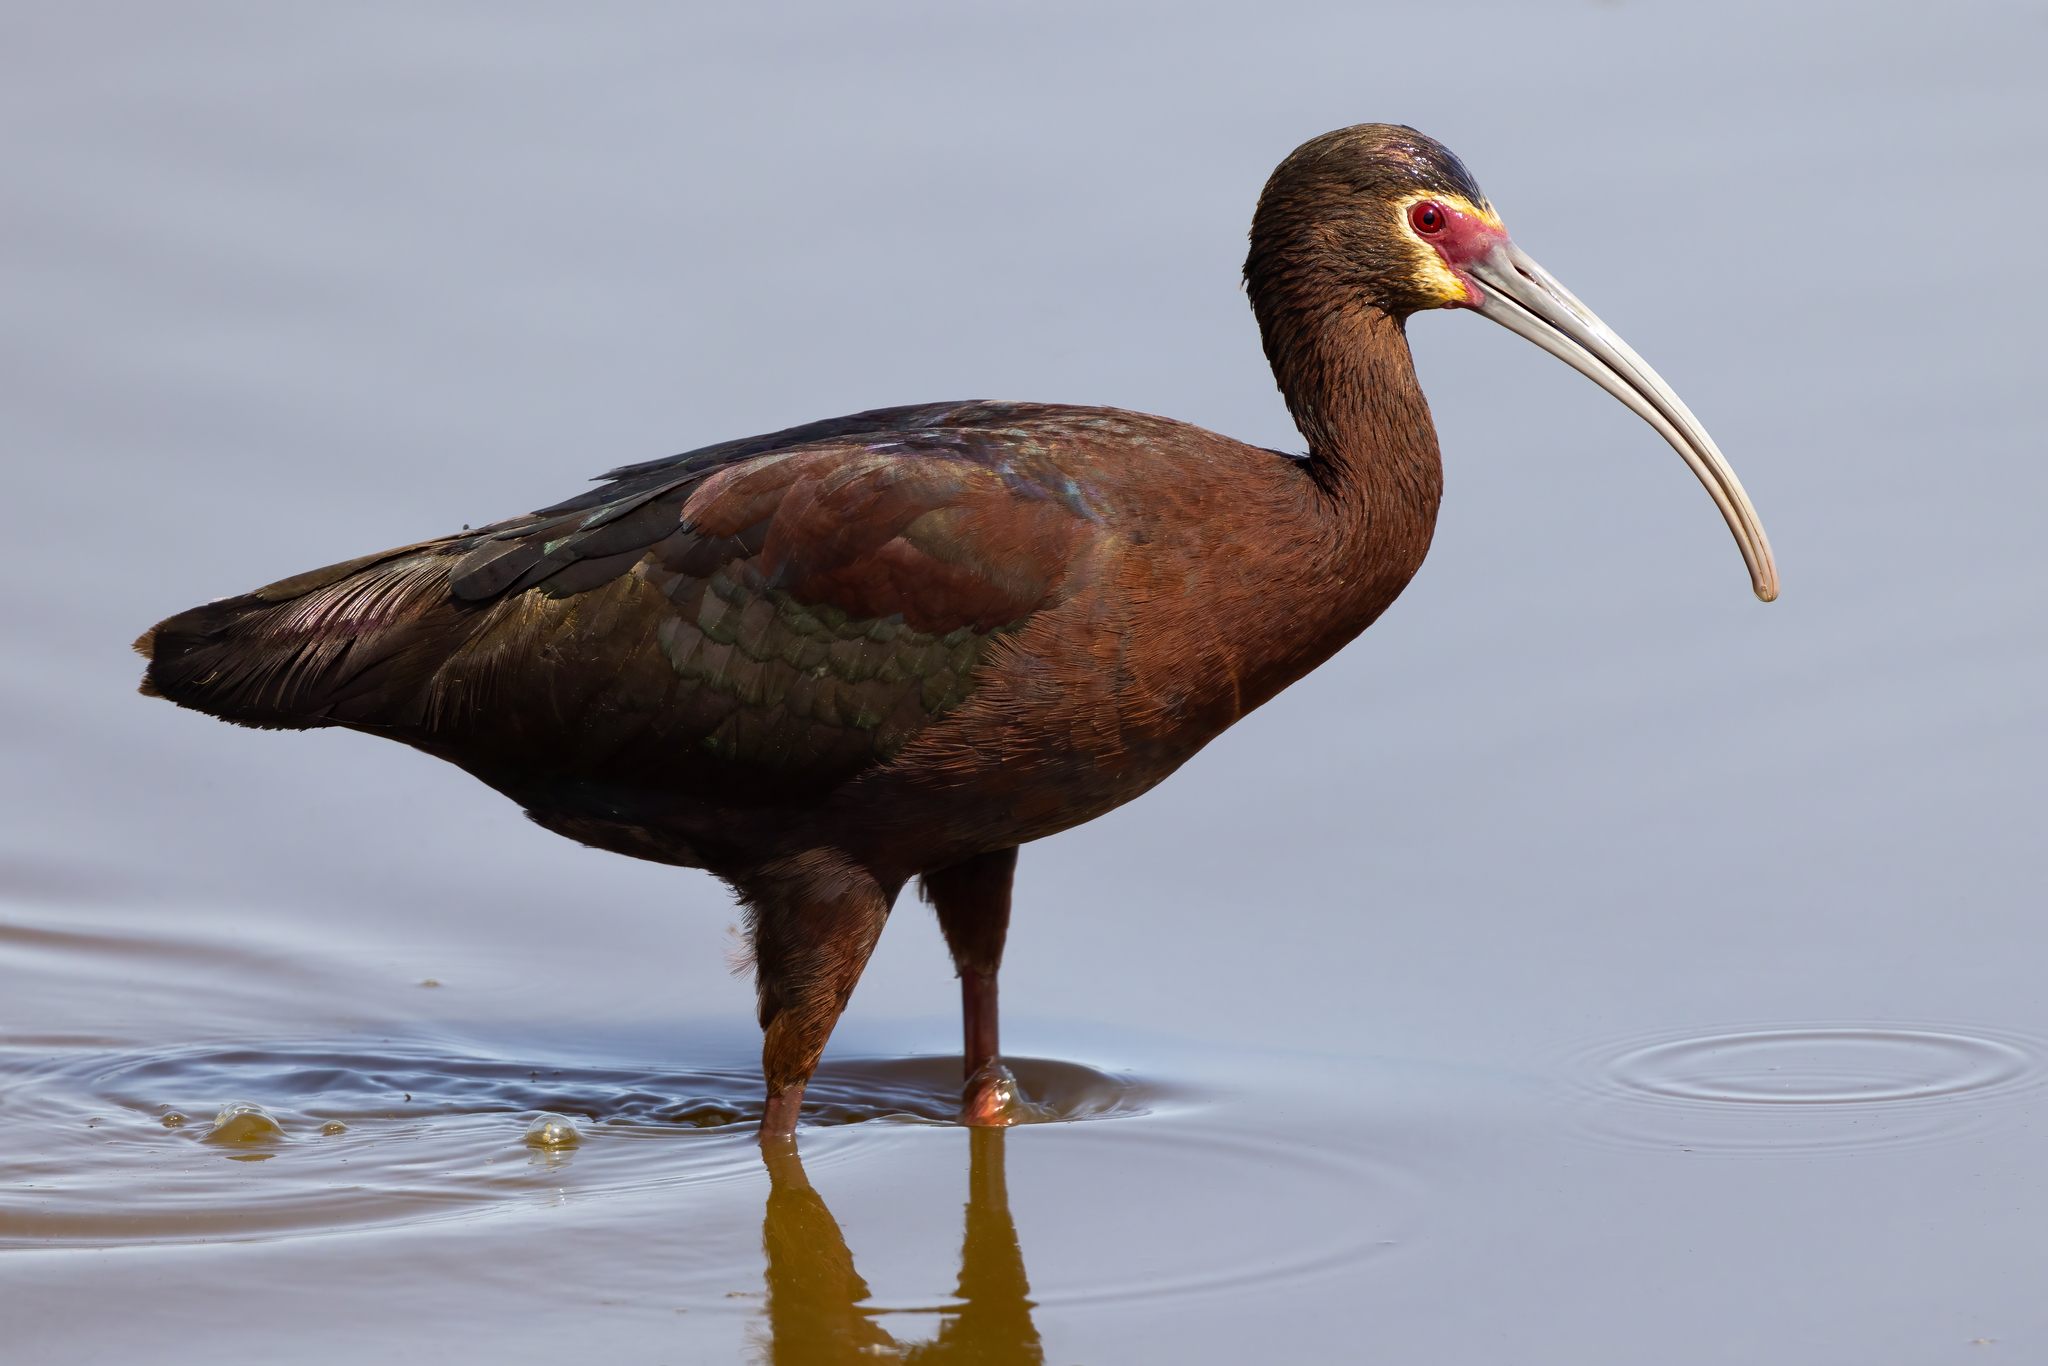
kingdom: Animalia
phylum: Chordata
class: Aves
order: Pelecaniformes
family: Threskiornithidae
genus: Plegadis
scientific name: Plegadis chihi
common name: White-faced ibis
